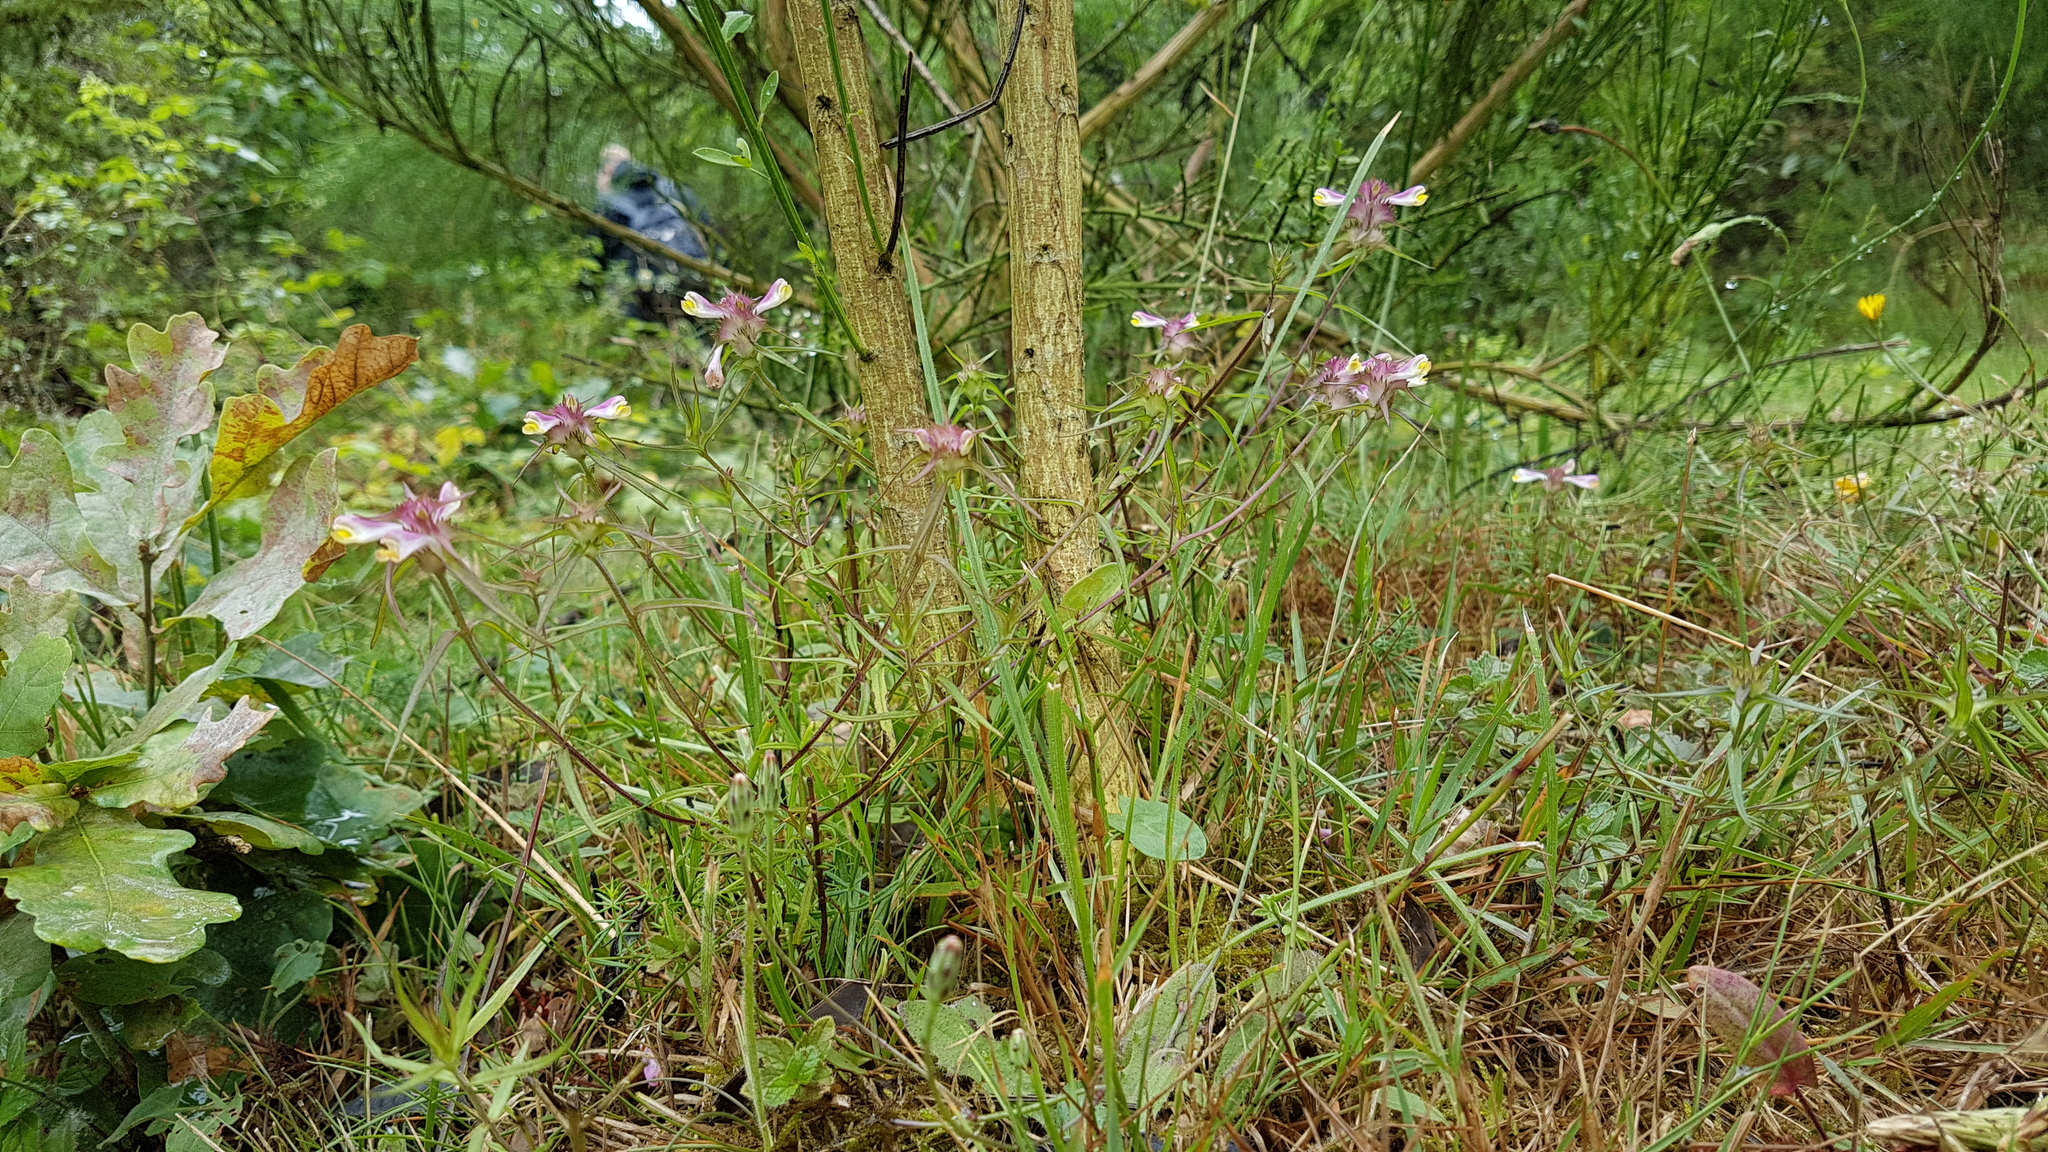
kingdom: Plantae
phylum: Tracheophyta
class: Magnoliopsida
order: Lamiales
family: Orobanchaceae
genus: Melampyrum
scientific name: Melampyrum cristatum
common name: Crested cow-wheat
